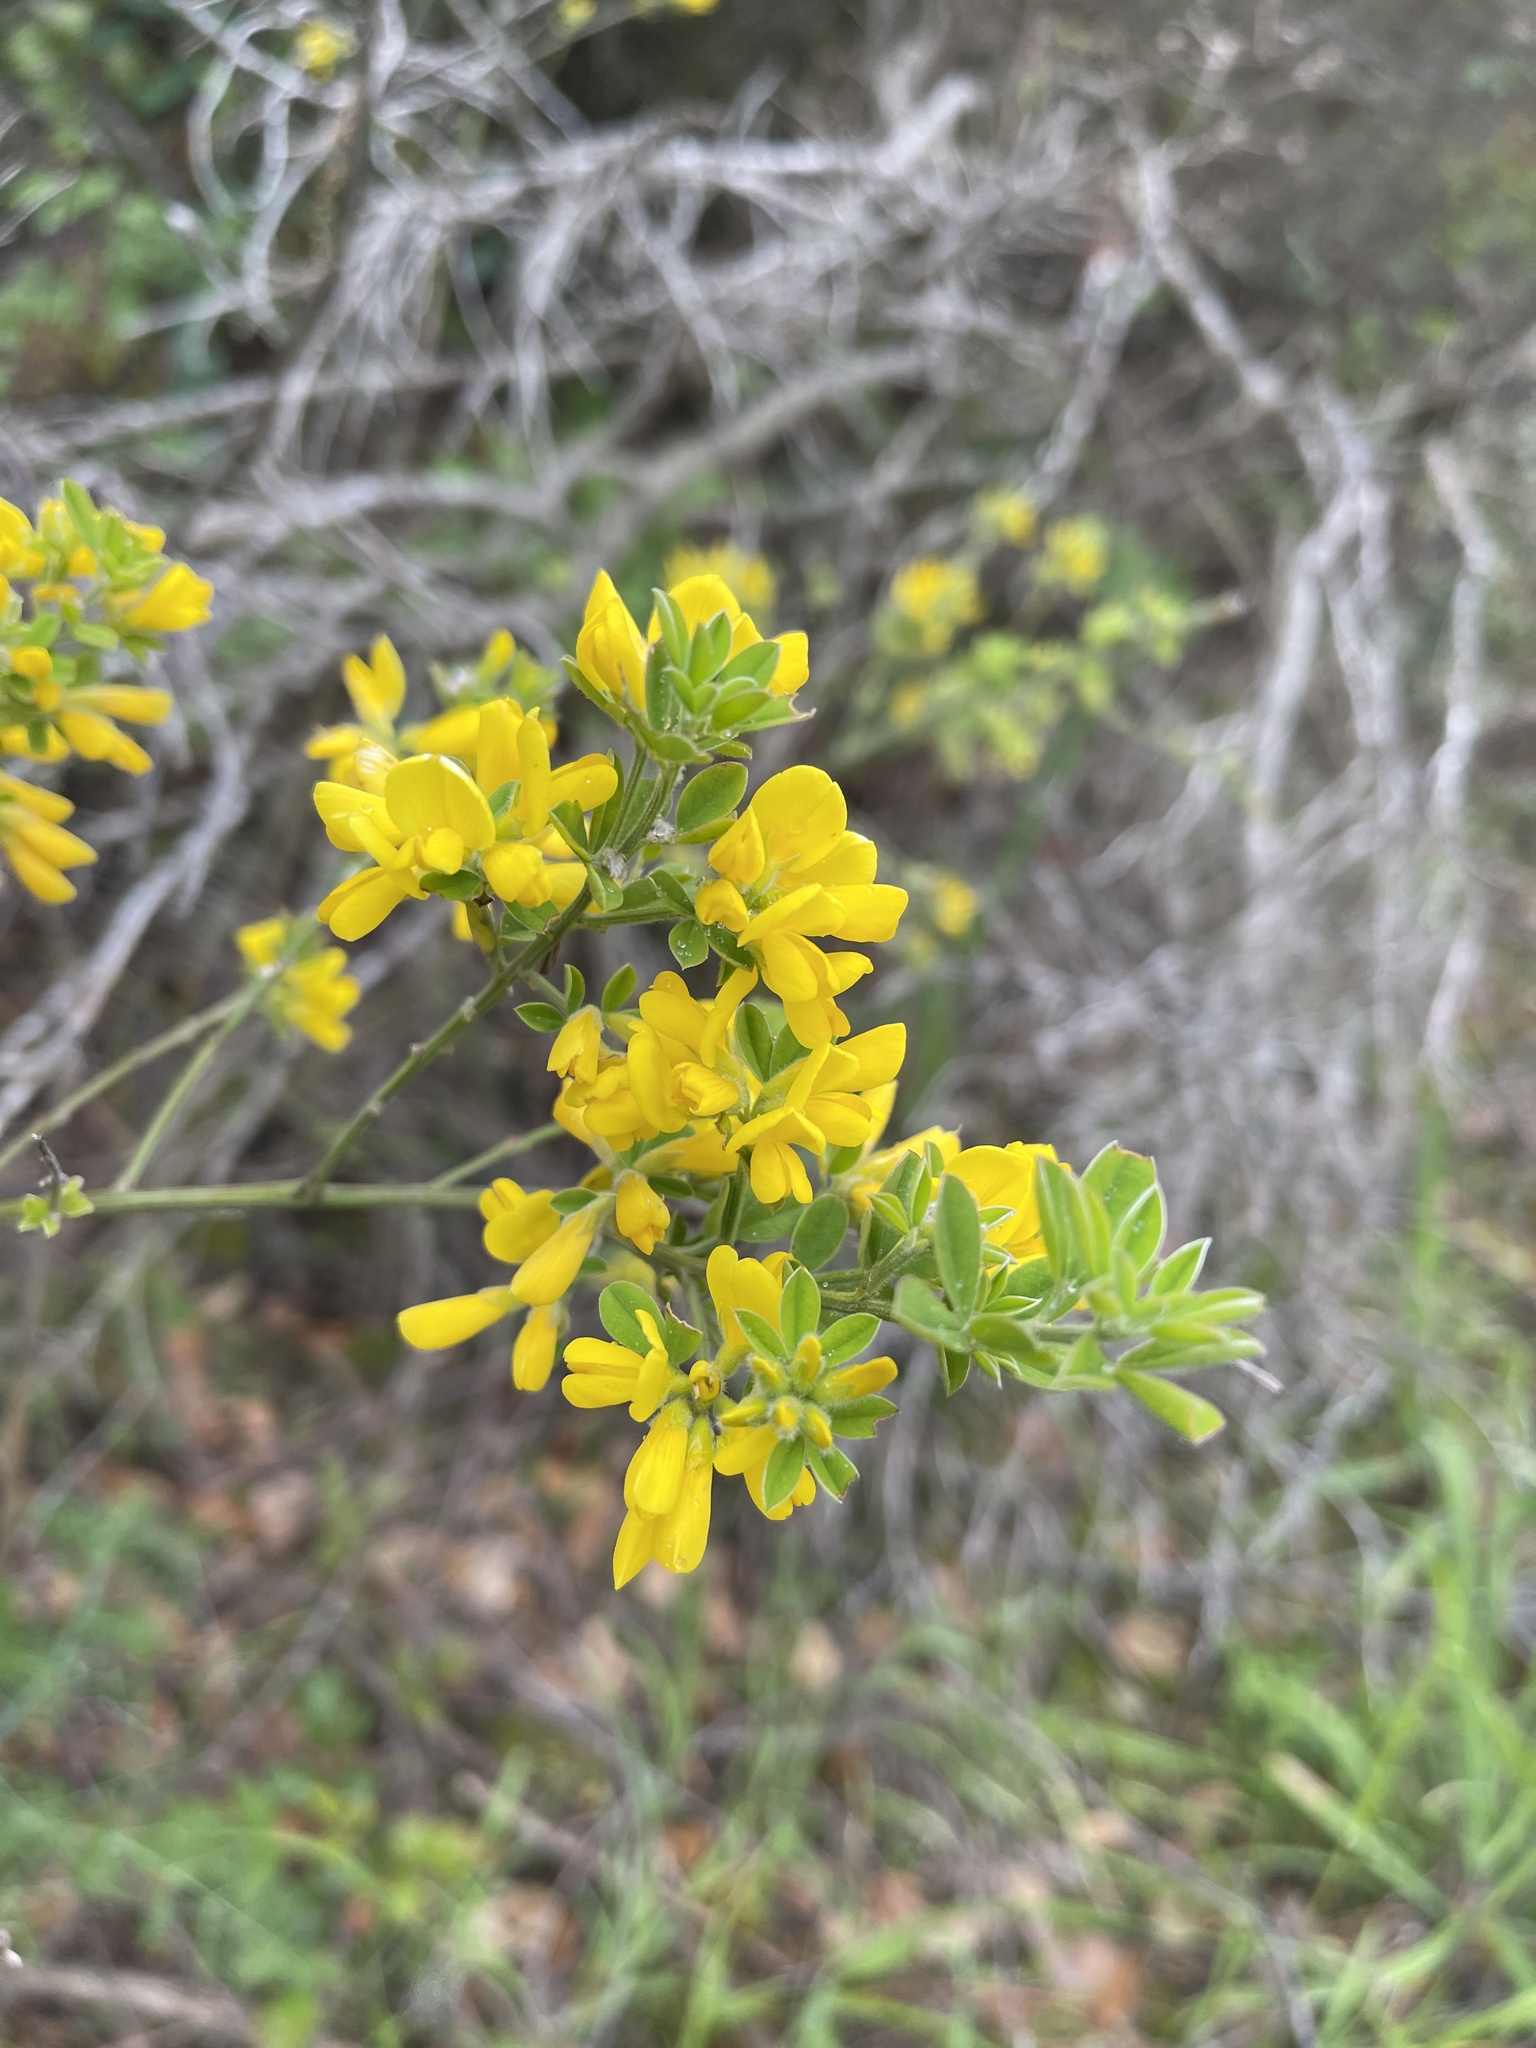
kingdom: Plantae
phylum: Tracheophyta
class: Magnoliopsida
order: Fabales
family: Fabaceae
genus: Genista
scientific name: Genista monspessulana
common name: Montpellier broom
